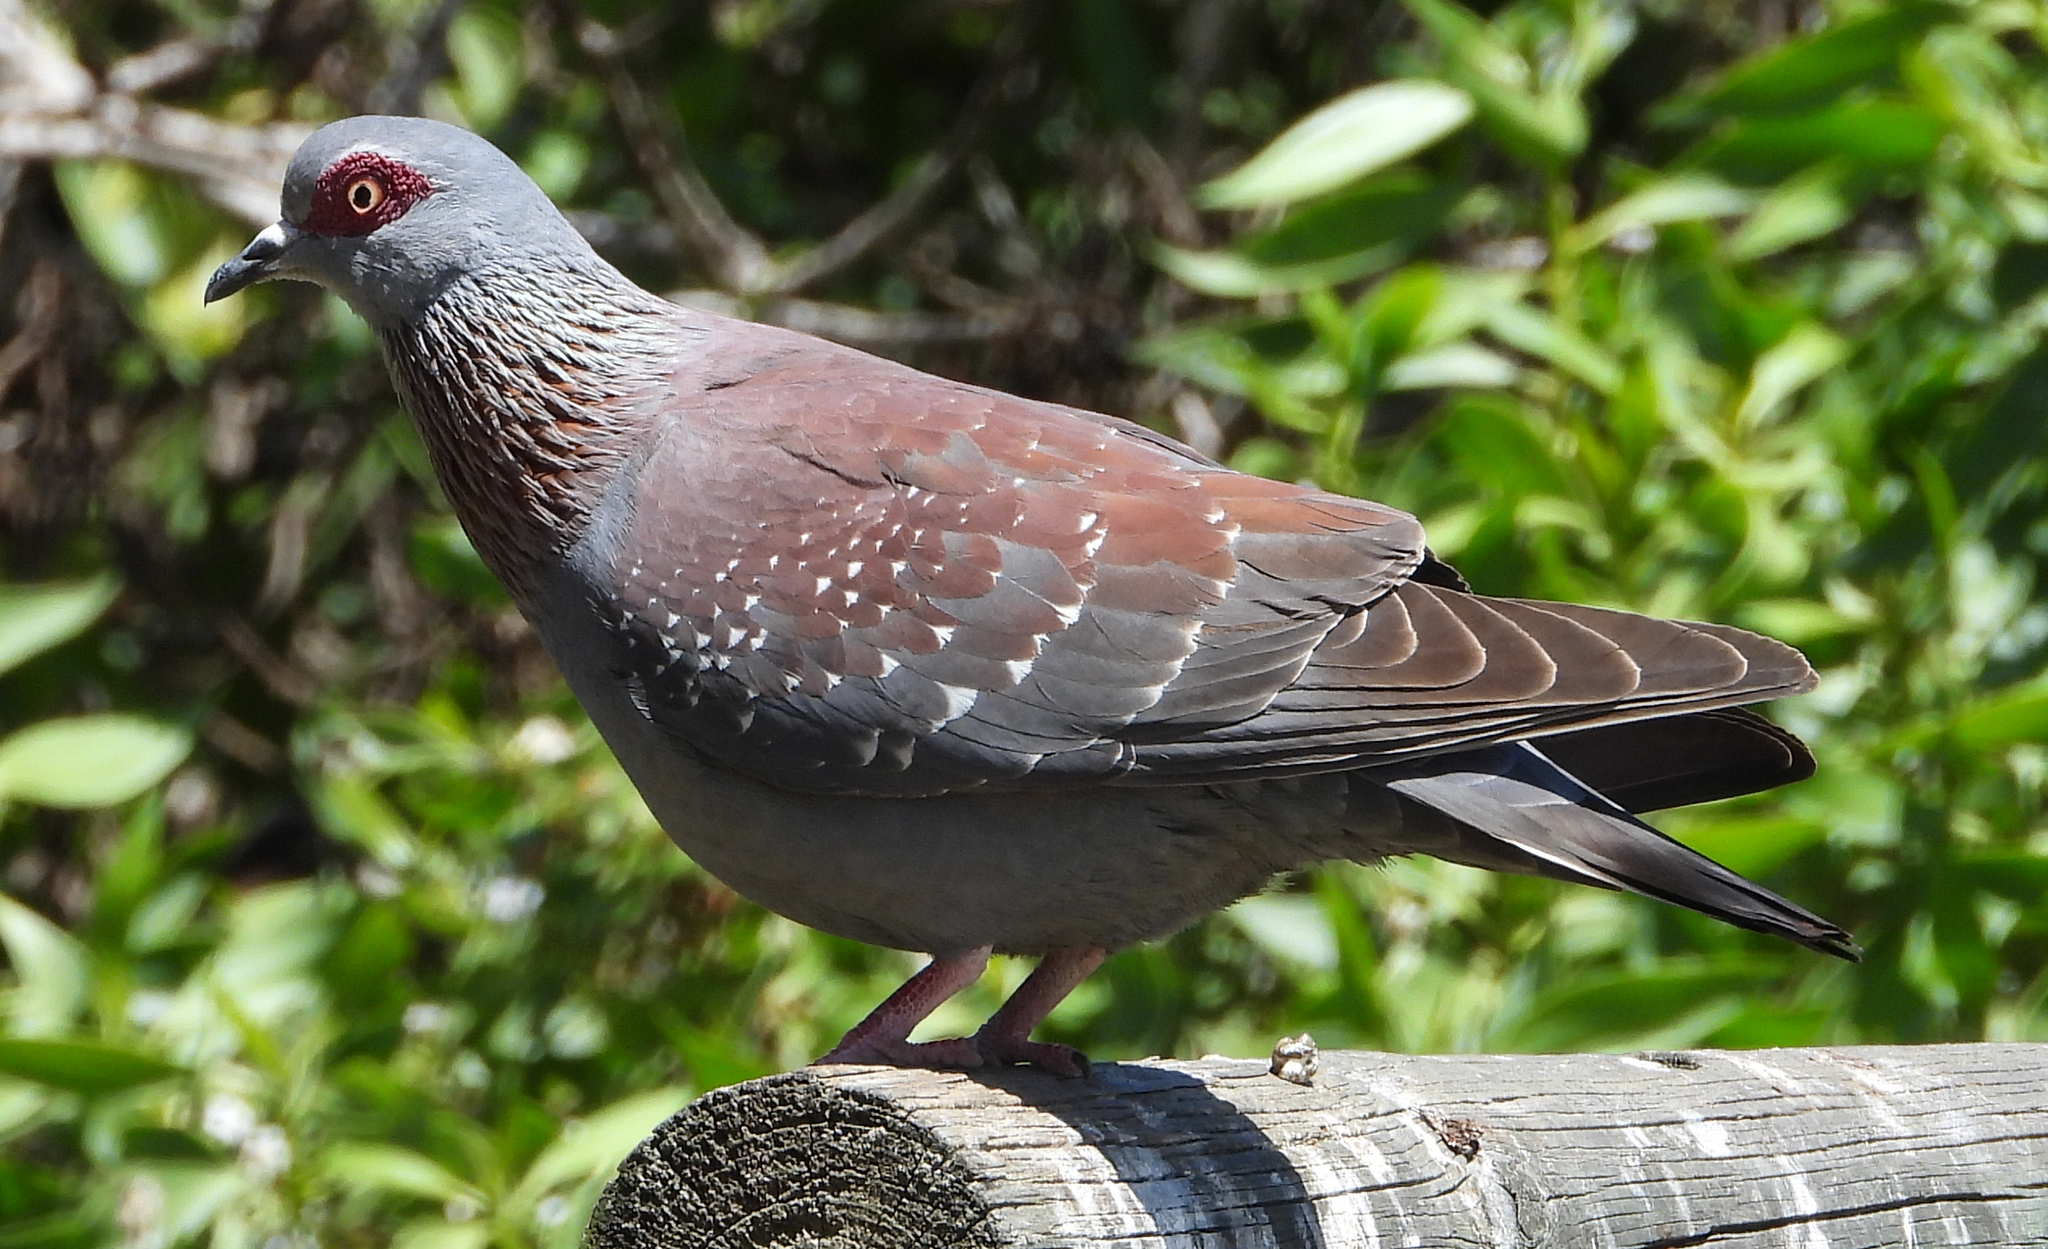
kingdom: Animalia
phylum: Chordata
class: Aves
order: Columbiformes
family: Columbidae
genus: Columba
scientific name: Columba guinea
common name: Speckled pigeon
